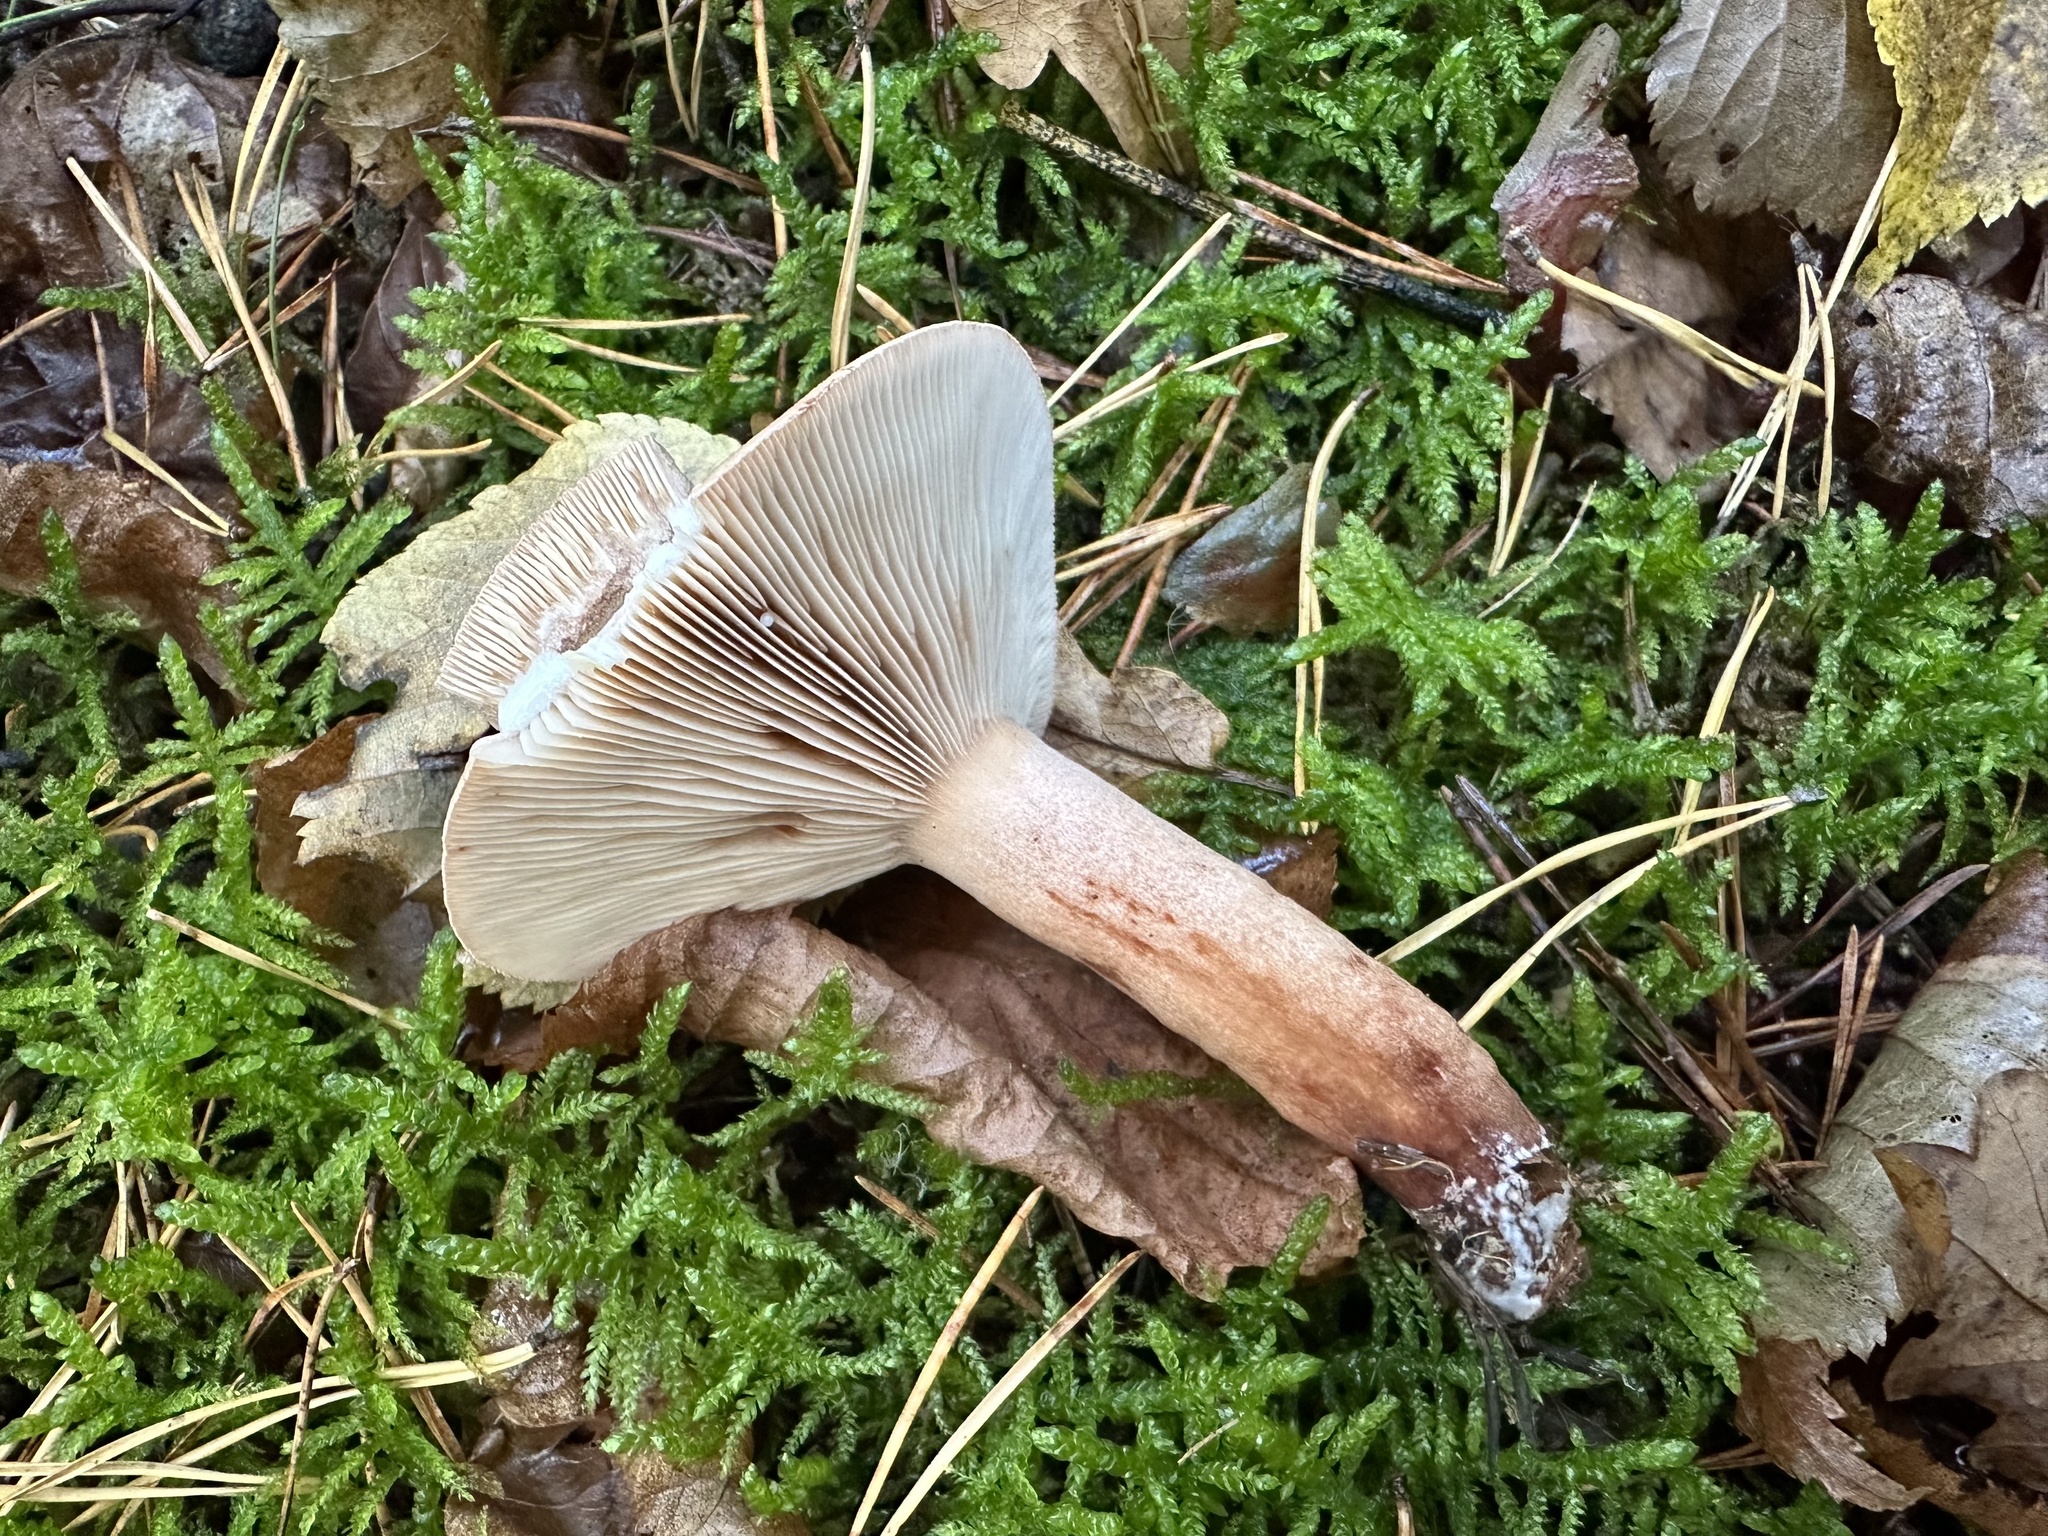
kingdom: Fungi
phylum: Basidiomycota
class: Agaricomycetes
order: Russulales
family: Russulaceae
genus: Lactarius
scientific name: Lactarius quietus
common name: Oak milk-cap
